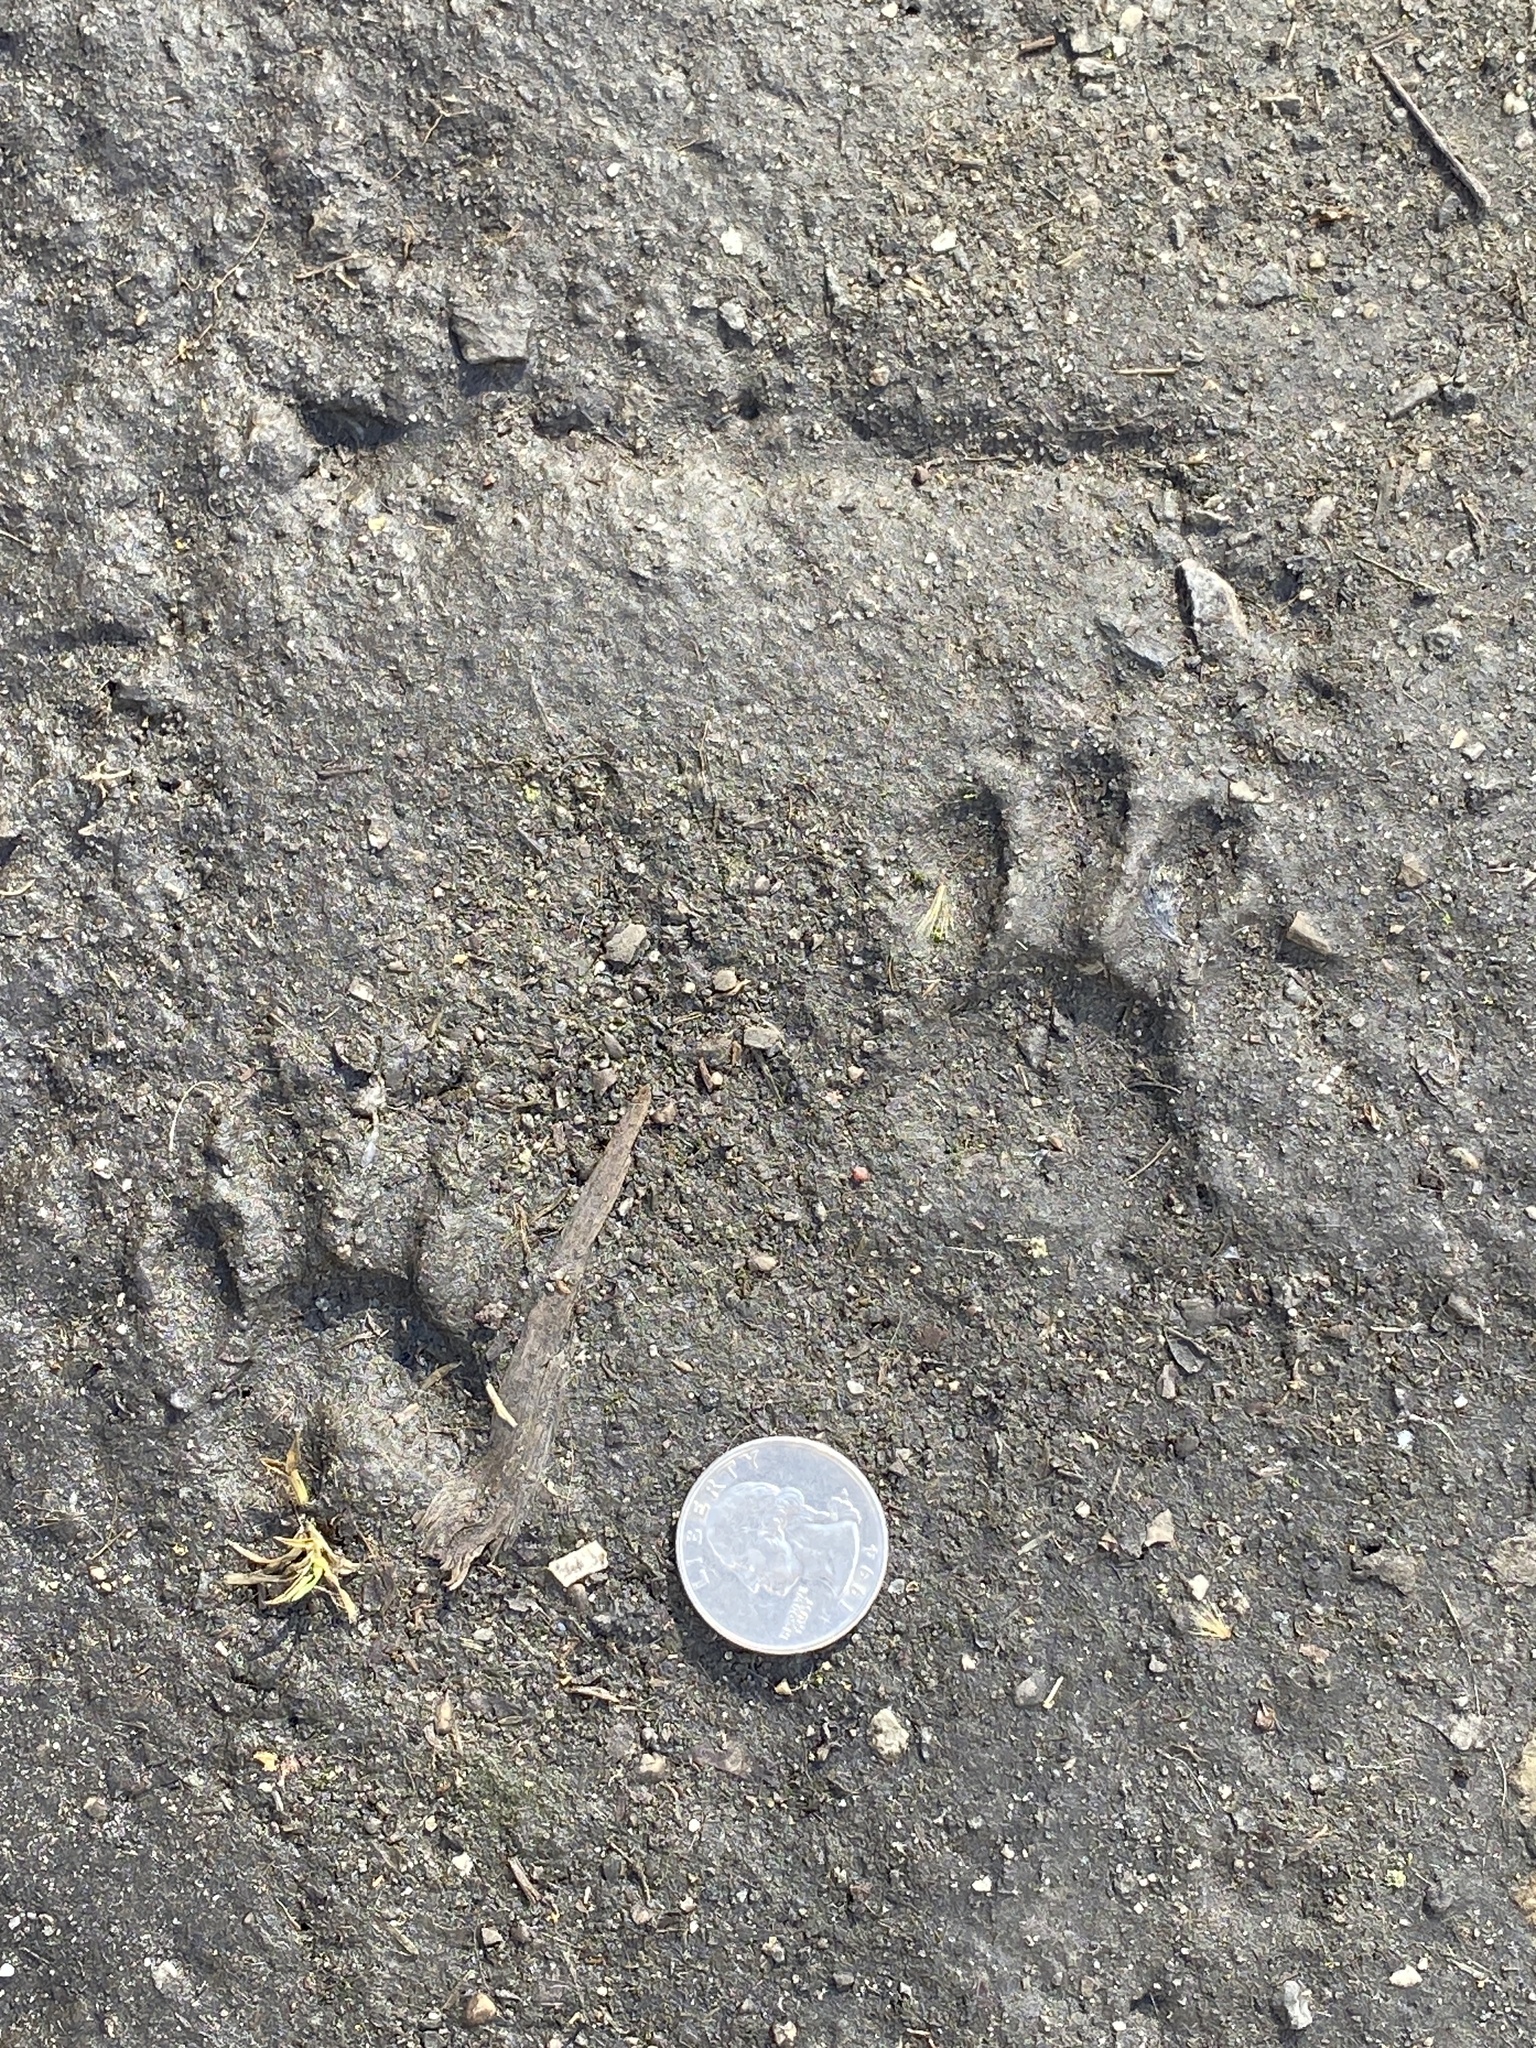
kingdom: Animalia
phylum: Chordata
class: Mammalia
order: Carnivora
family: Procyonidae
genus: Procyon
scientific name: Procyon lotor
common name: Raccoon
